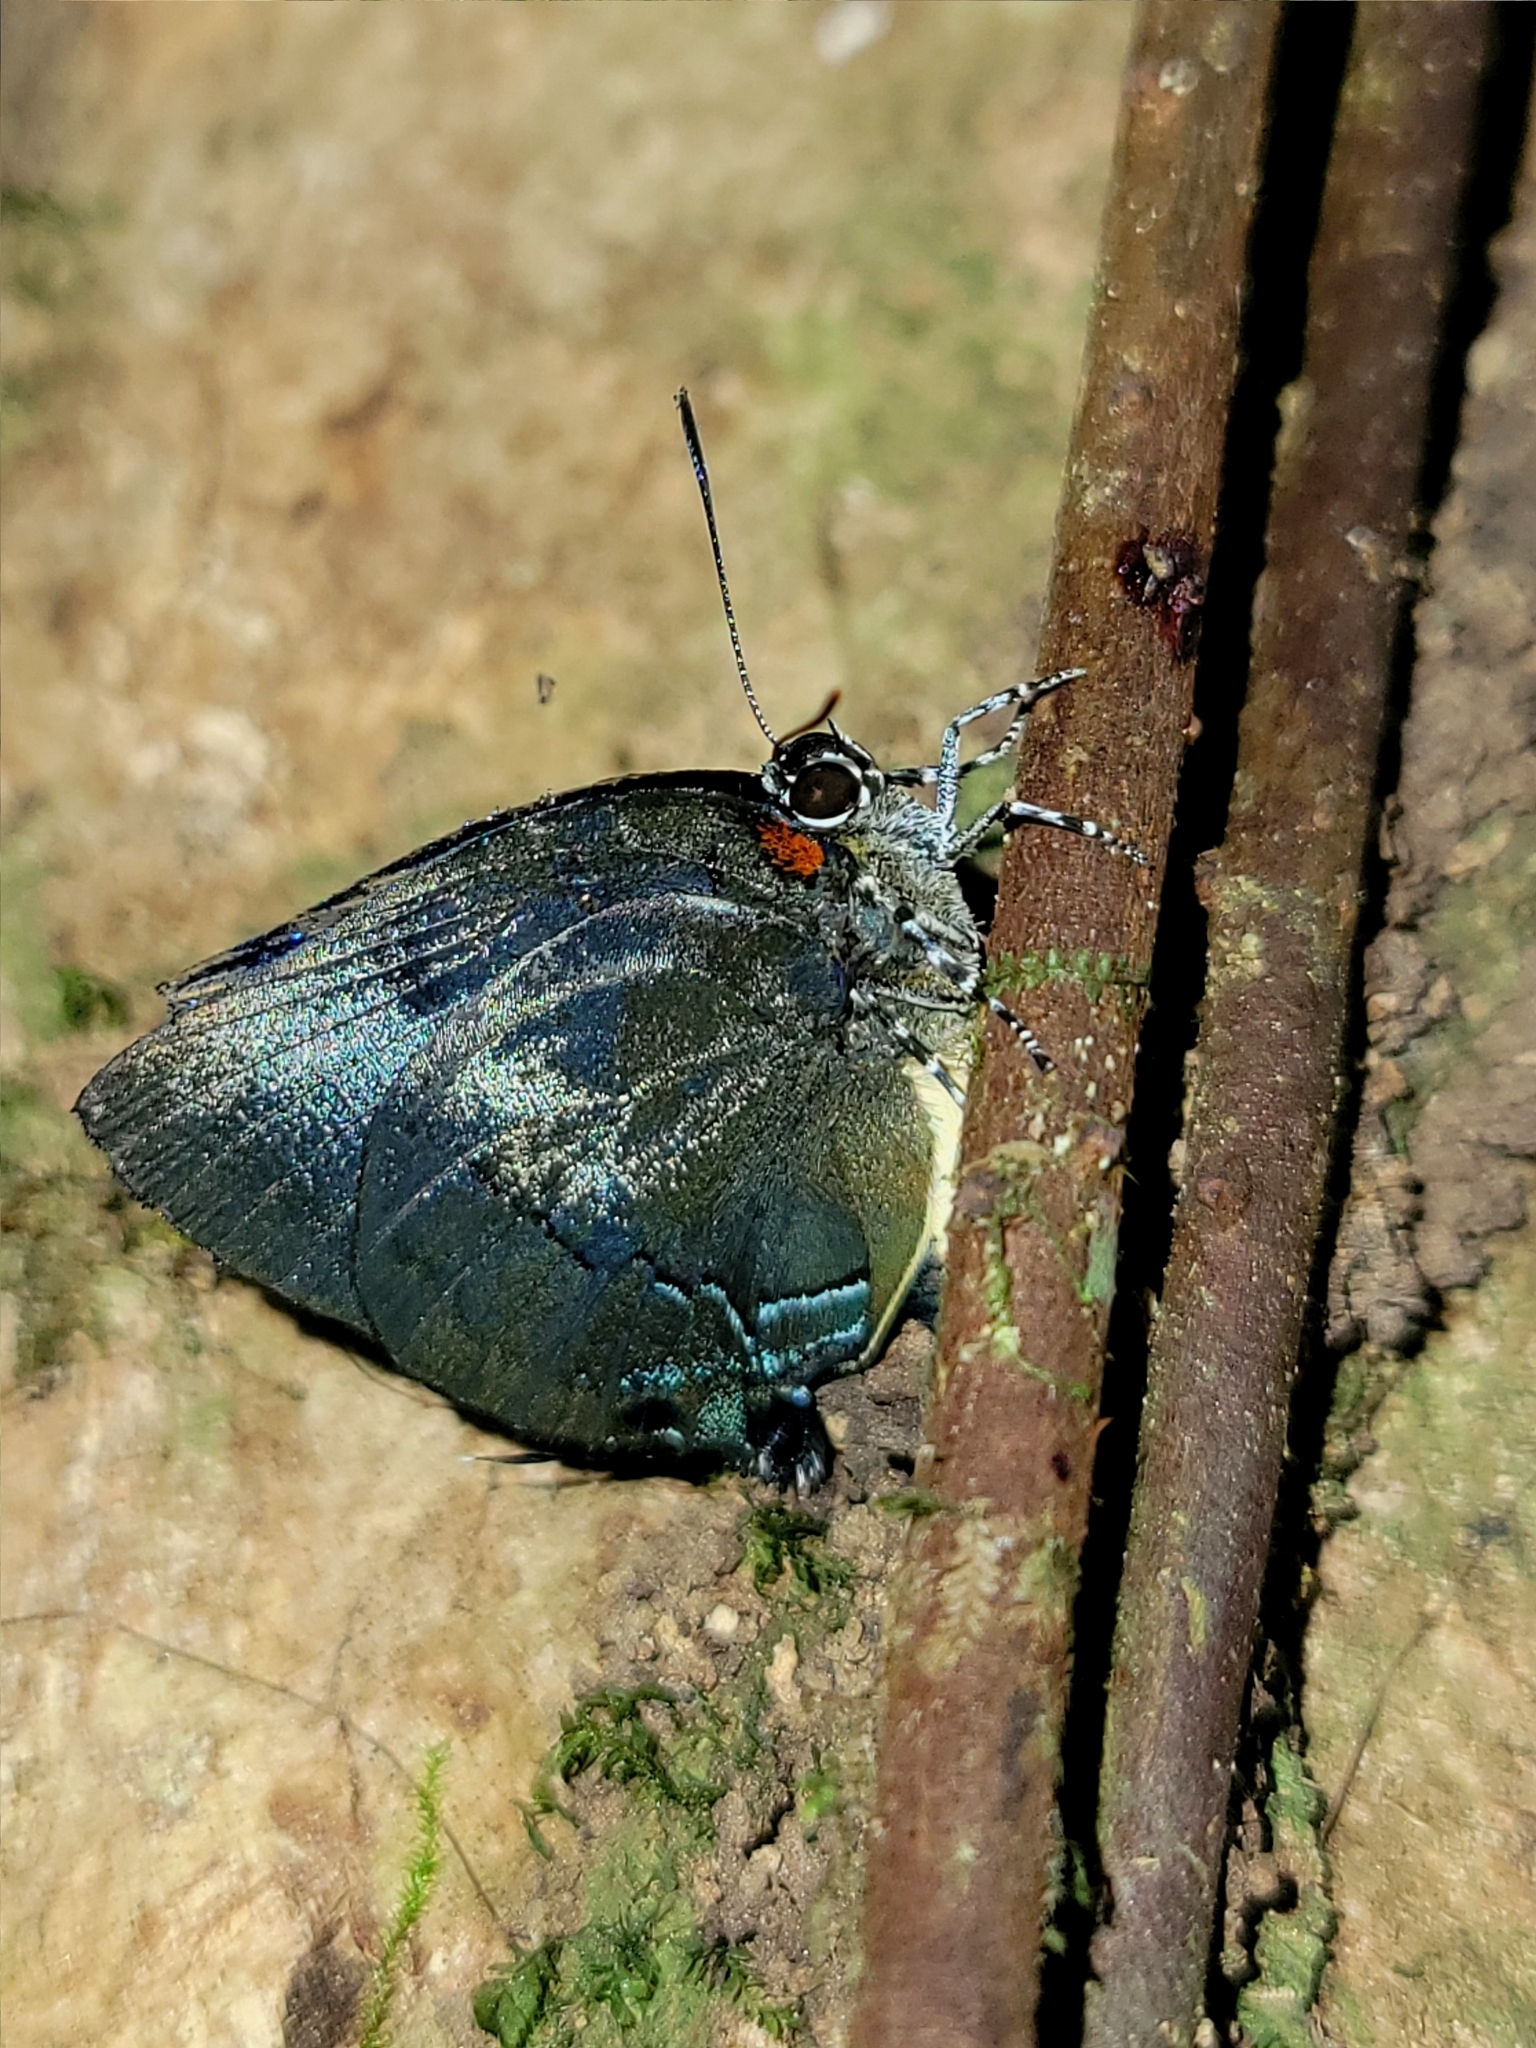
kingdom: Animalia
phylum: Arthropoda
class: Insecta
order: Lepidoptera
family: Lycaenidae
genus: Panthiades
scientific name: Panthiades bitias
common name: Bitias hairstreak
